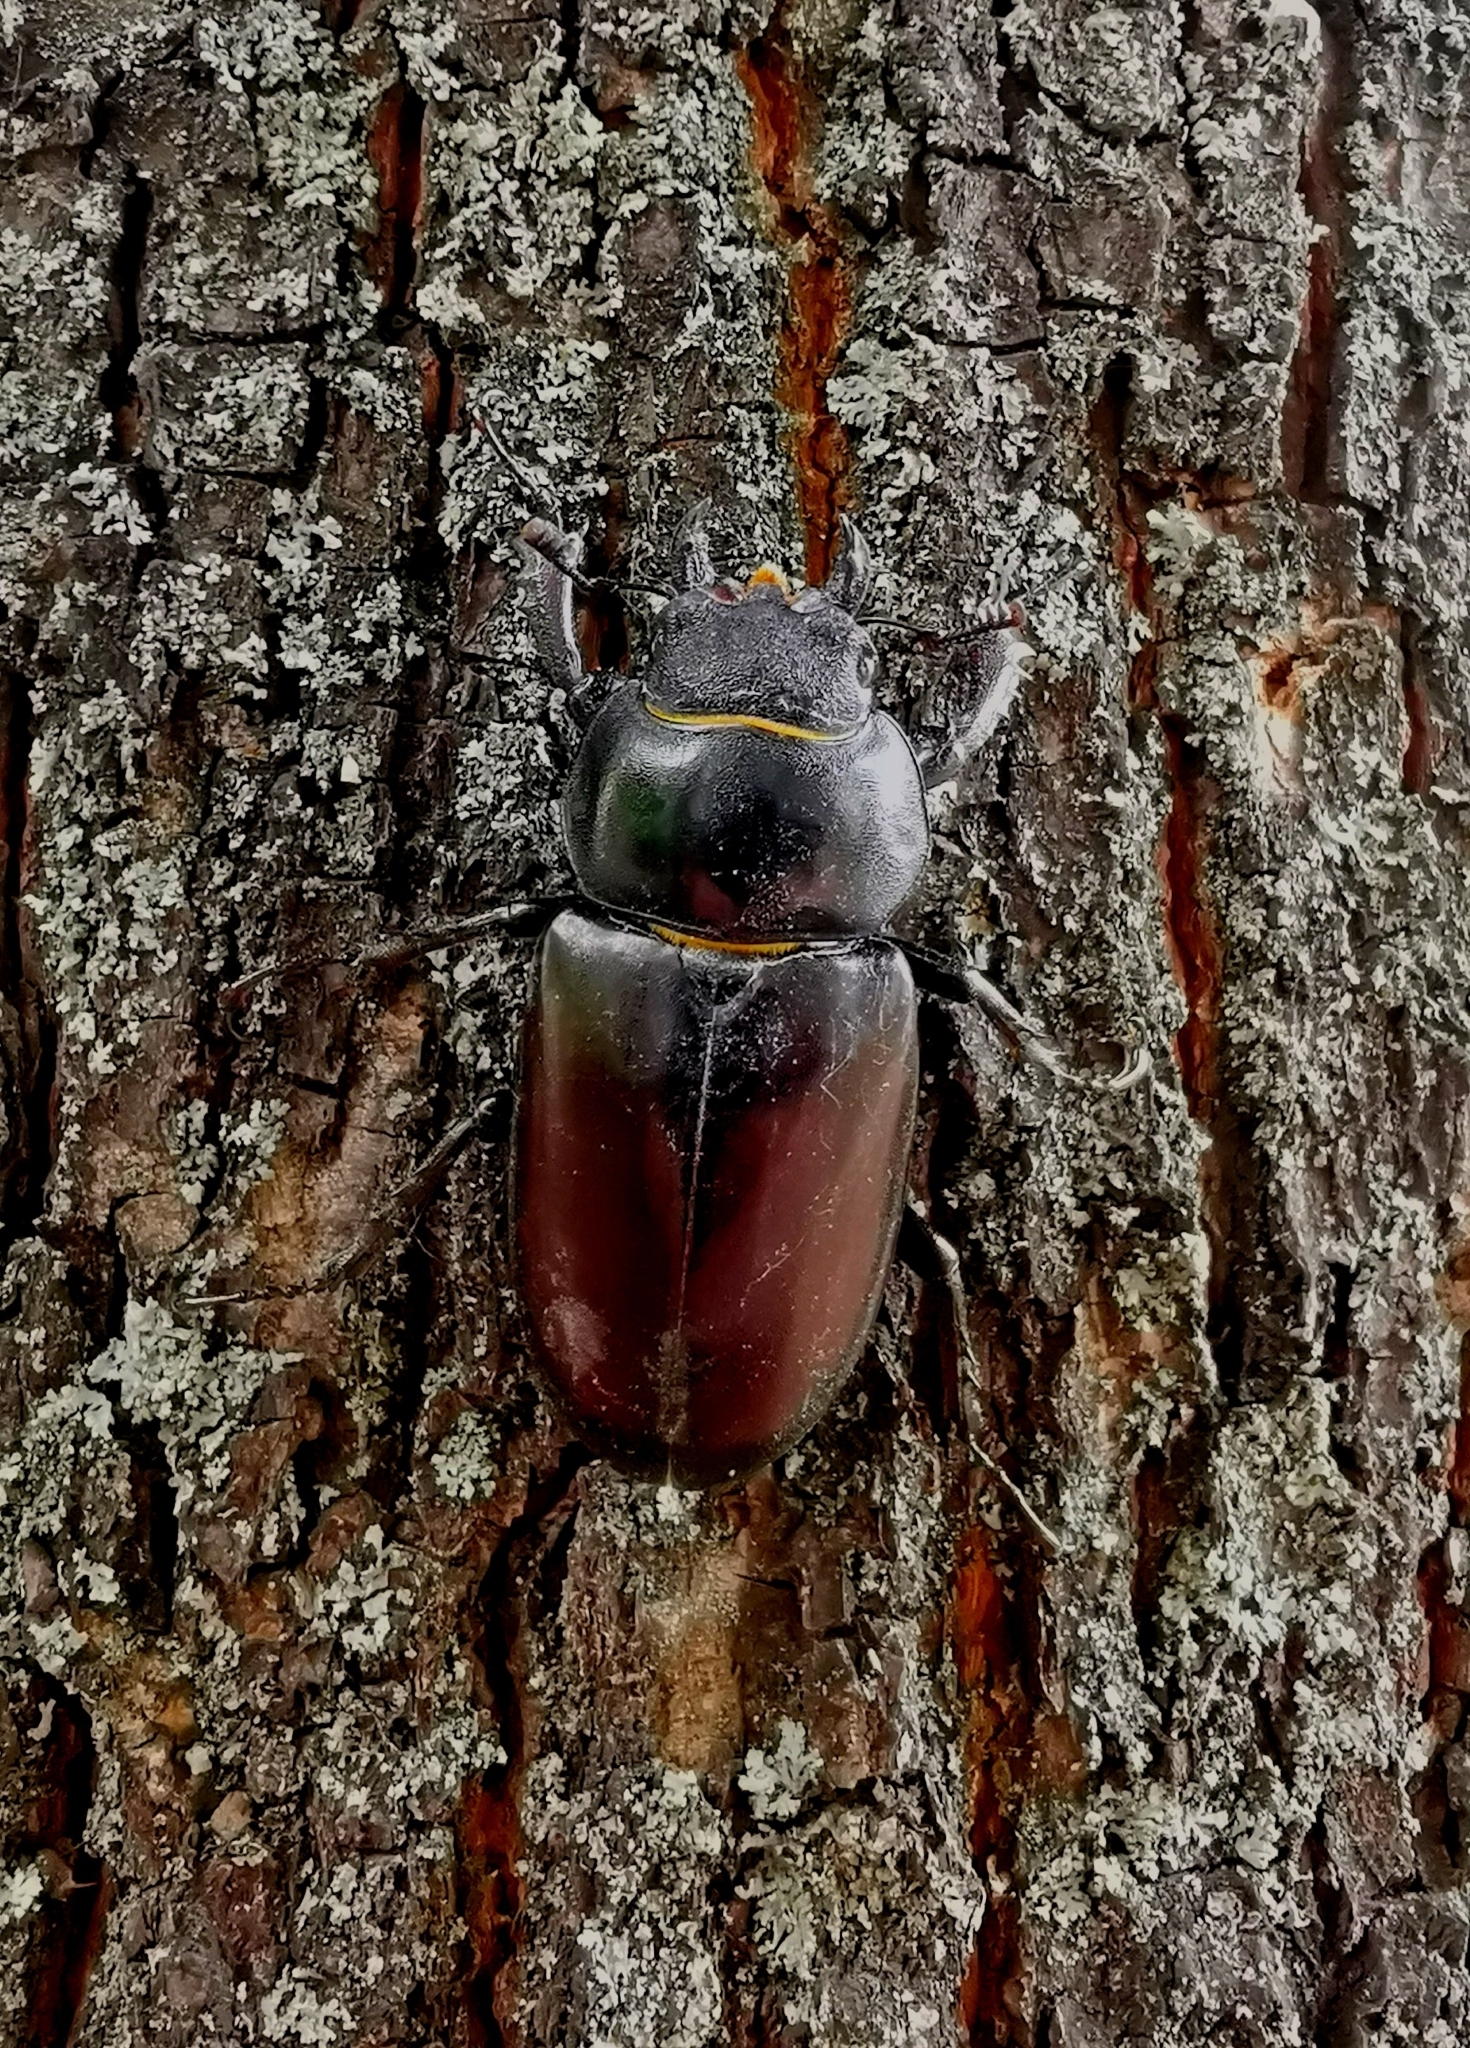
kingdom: Animalia
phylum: Arthropoda
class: Insecta
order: Coleoptera
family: Lucanidae
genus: Lucanus
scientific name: Lucanus cervus
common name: Stag beetle
